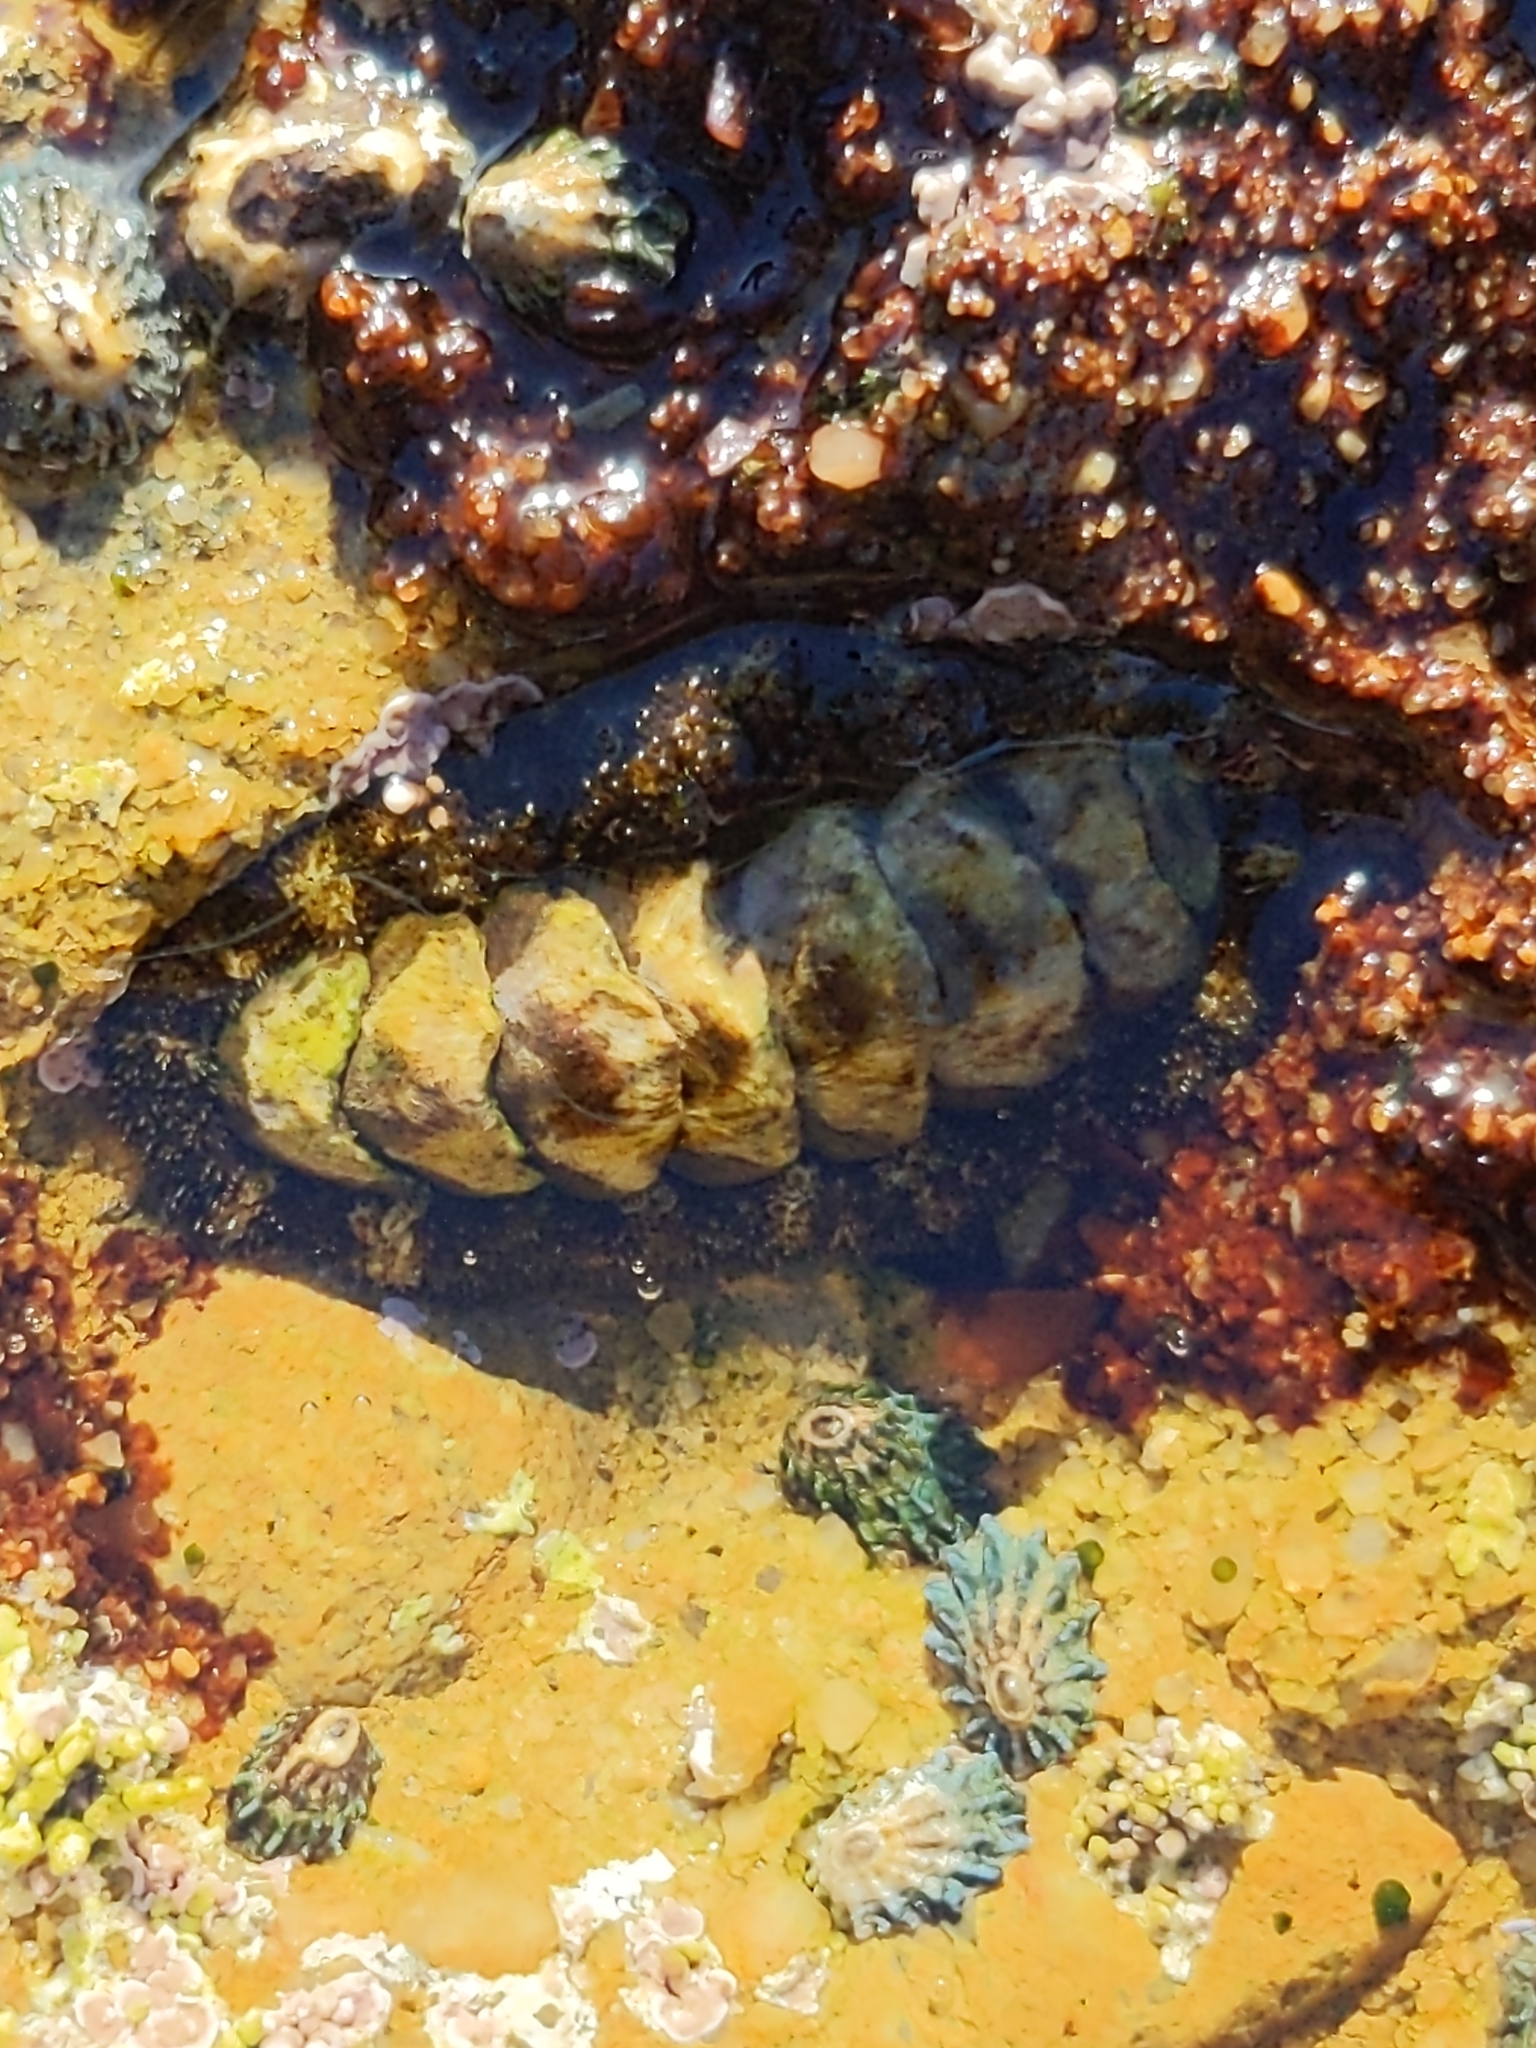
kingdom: Animalia
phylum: Mollusca
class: Polyplacophora
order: Chitonida
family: Tonicellidae
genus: Nuttallina
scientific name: Nuttallina californica
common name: California nuttall chiton
